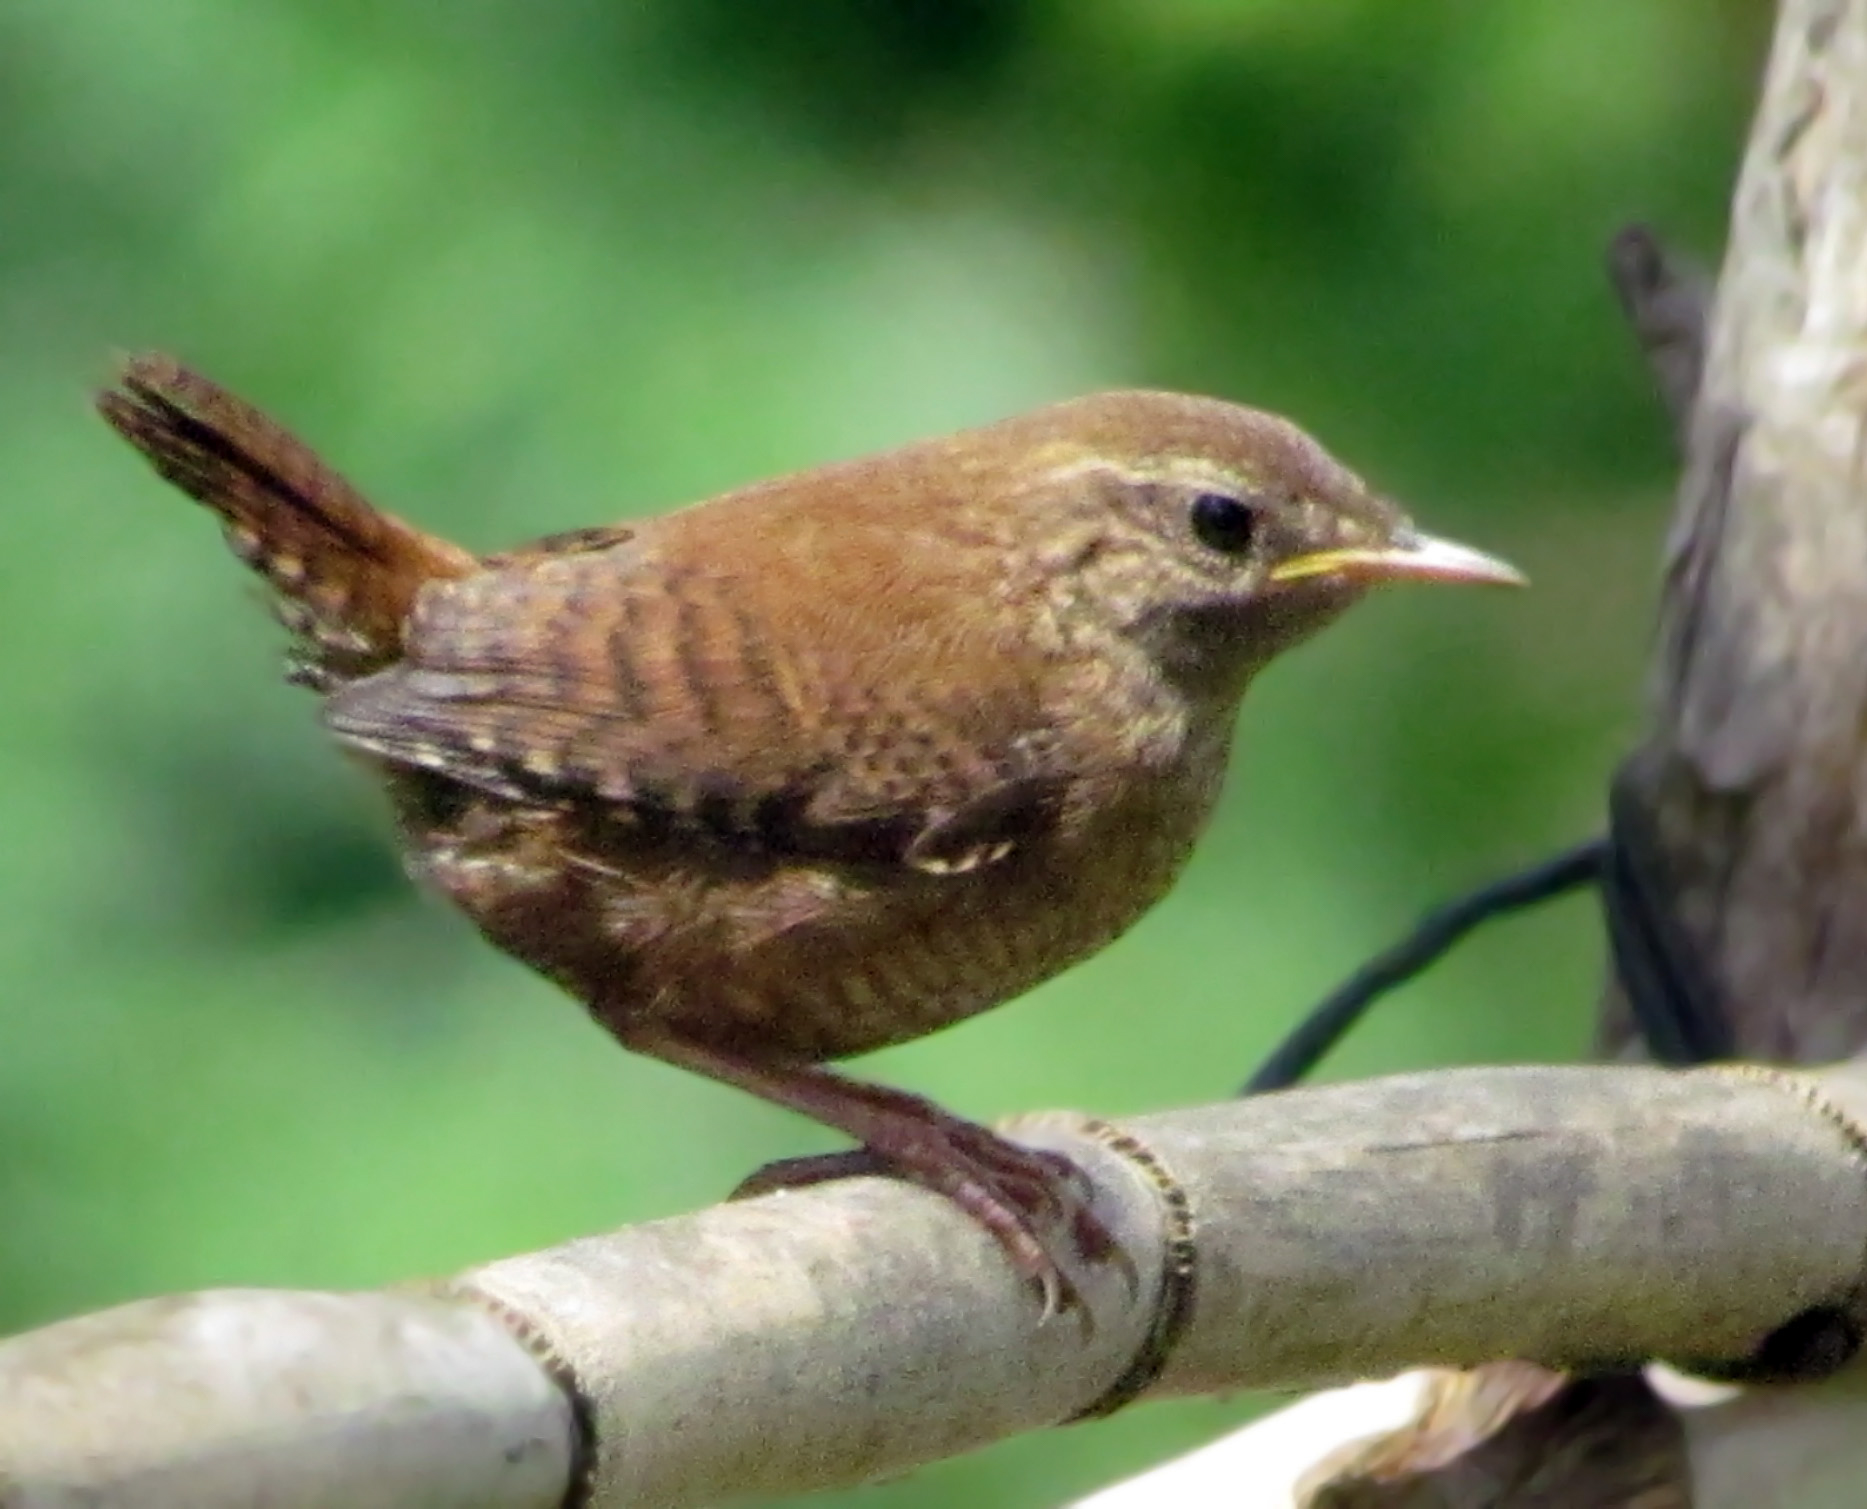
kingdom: Animalia
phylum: Chordata
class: Aves
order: Passeriformes
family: Troglodytidae
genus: Troglodytes
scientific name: Troglodytes troglodytes
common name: Eurasian wren
